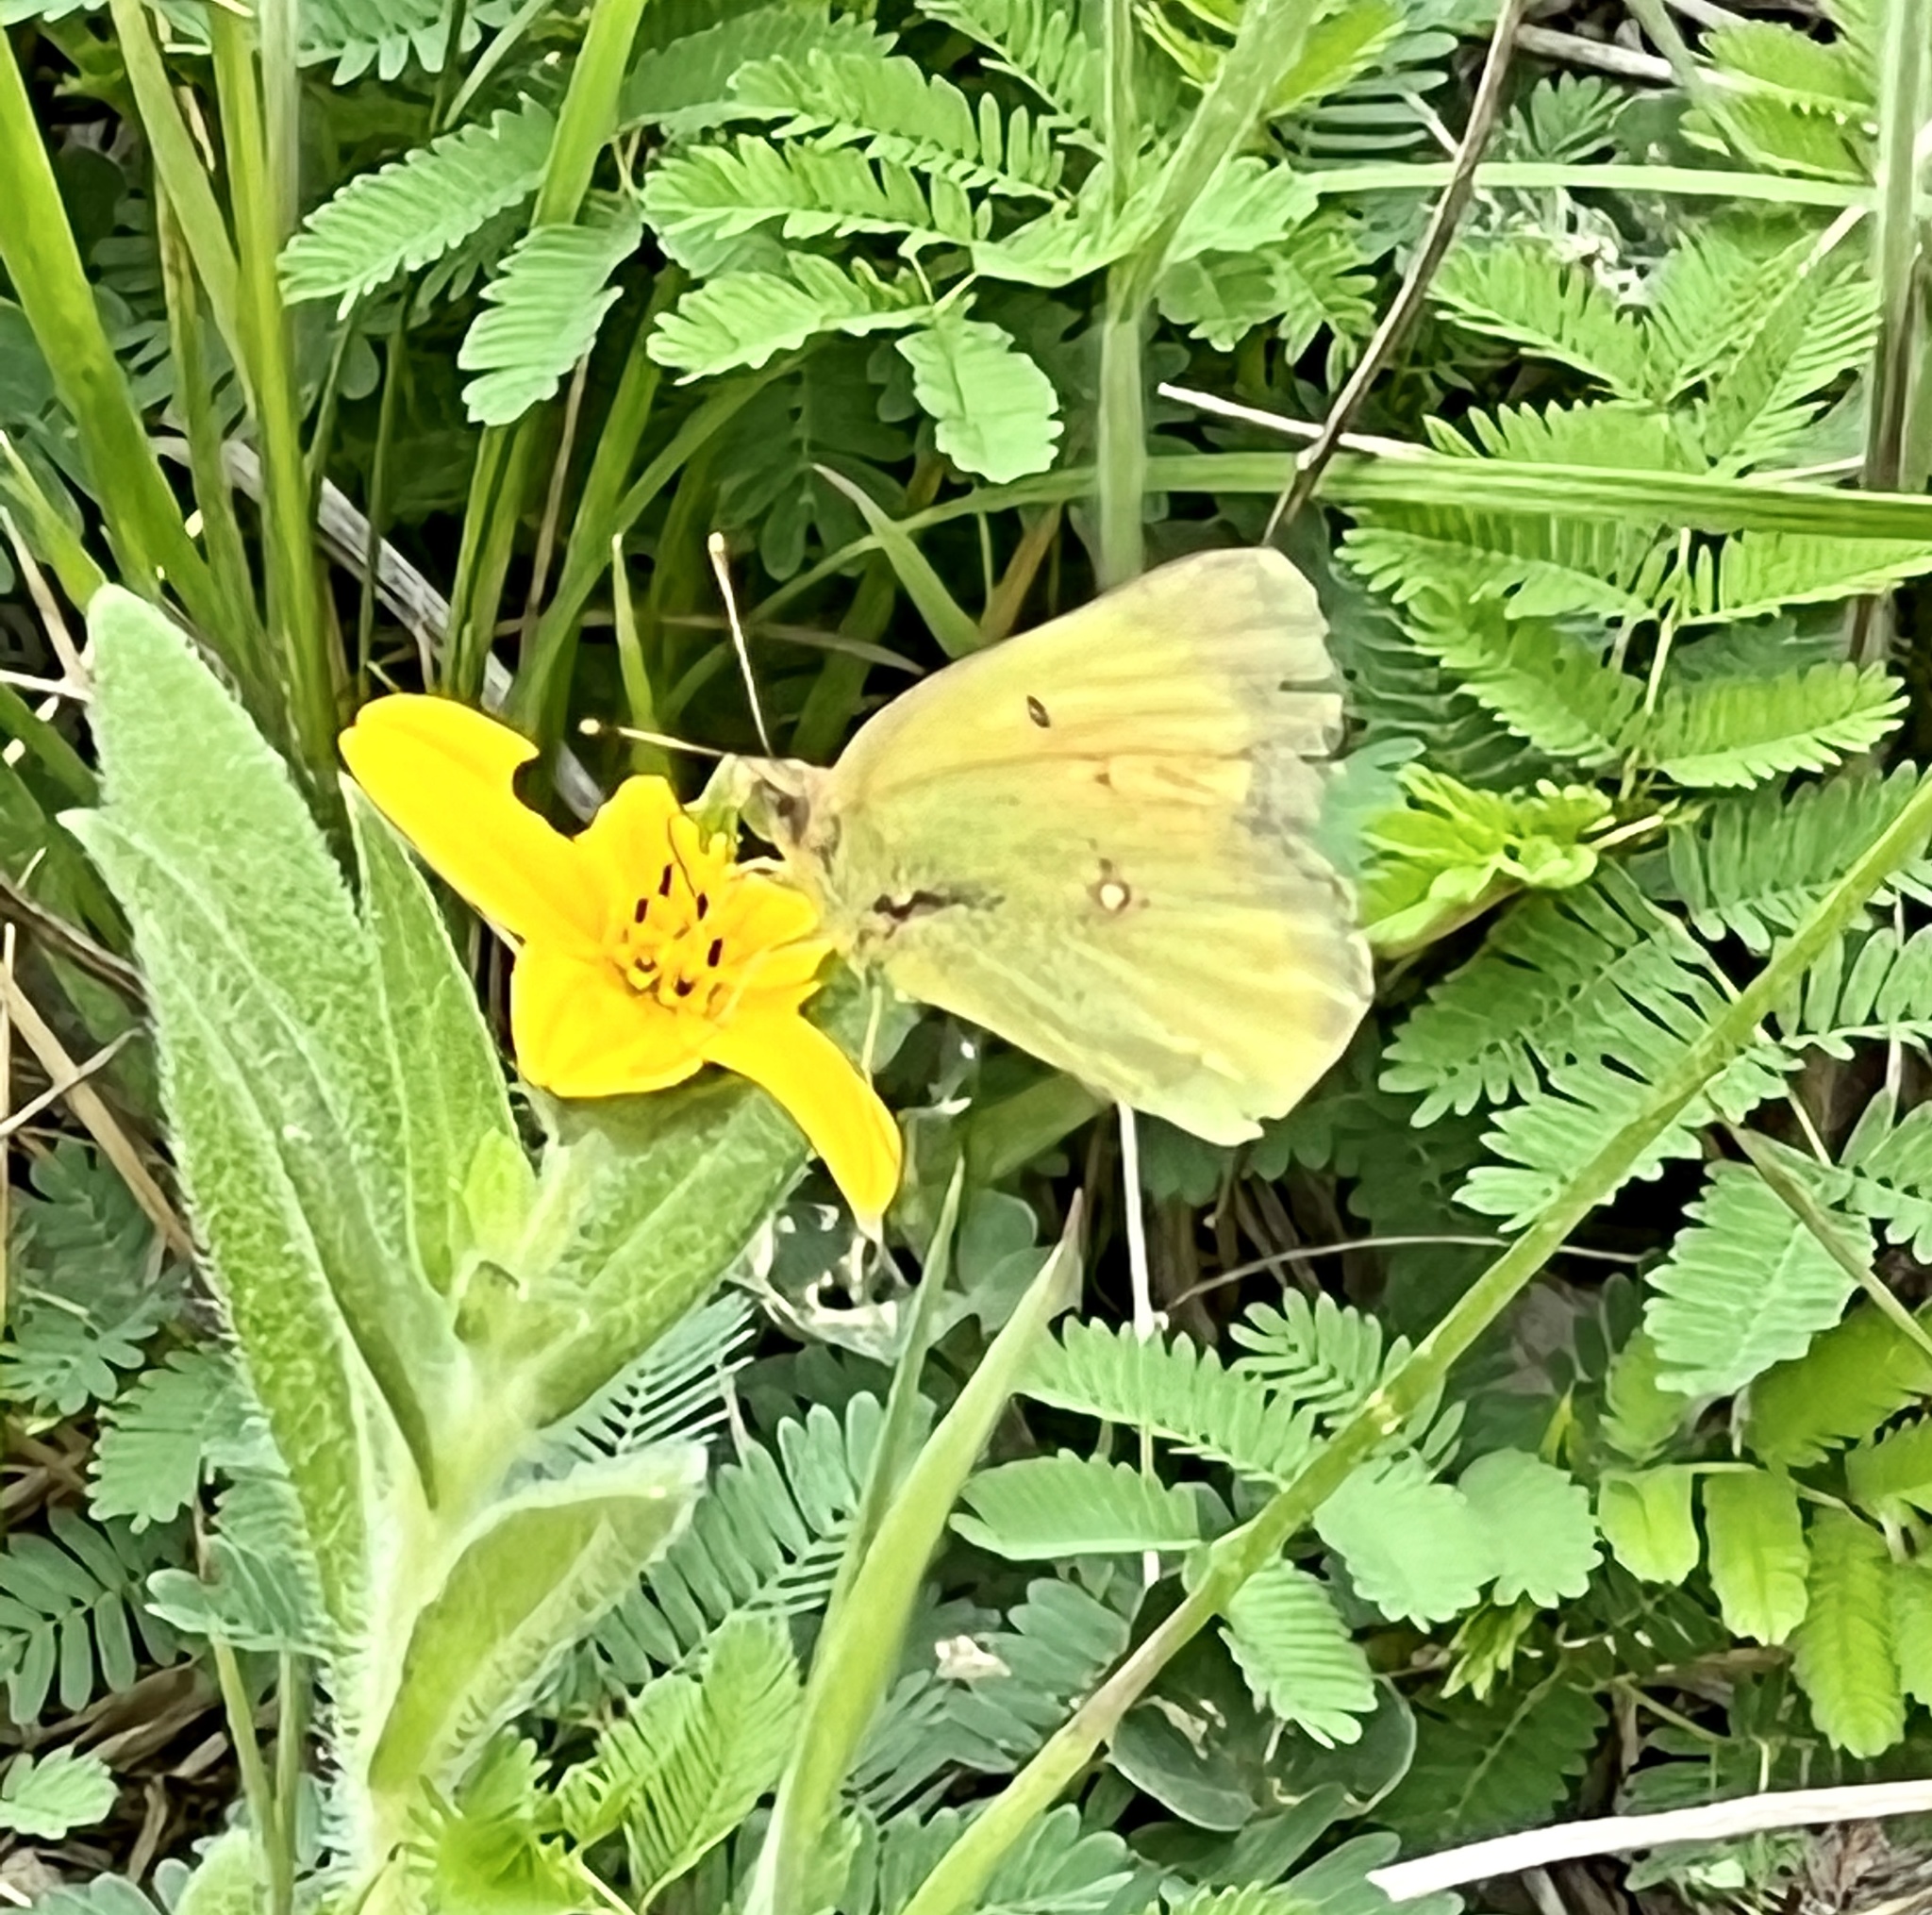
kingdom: Animalia
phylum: Arthropoda
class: Insecta
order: Lepidoptera
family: Pieridae
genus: Colias
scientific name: Colias eurytheme
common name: Alfalfa butterfly
